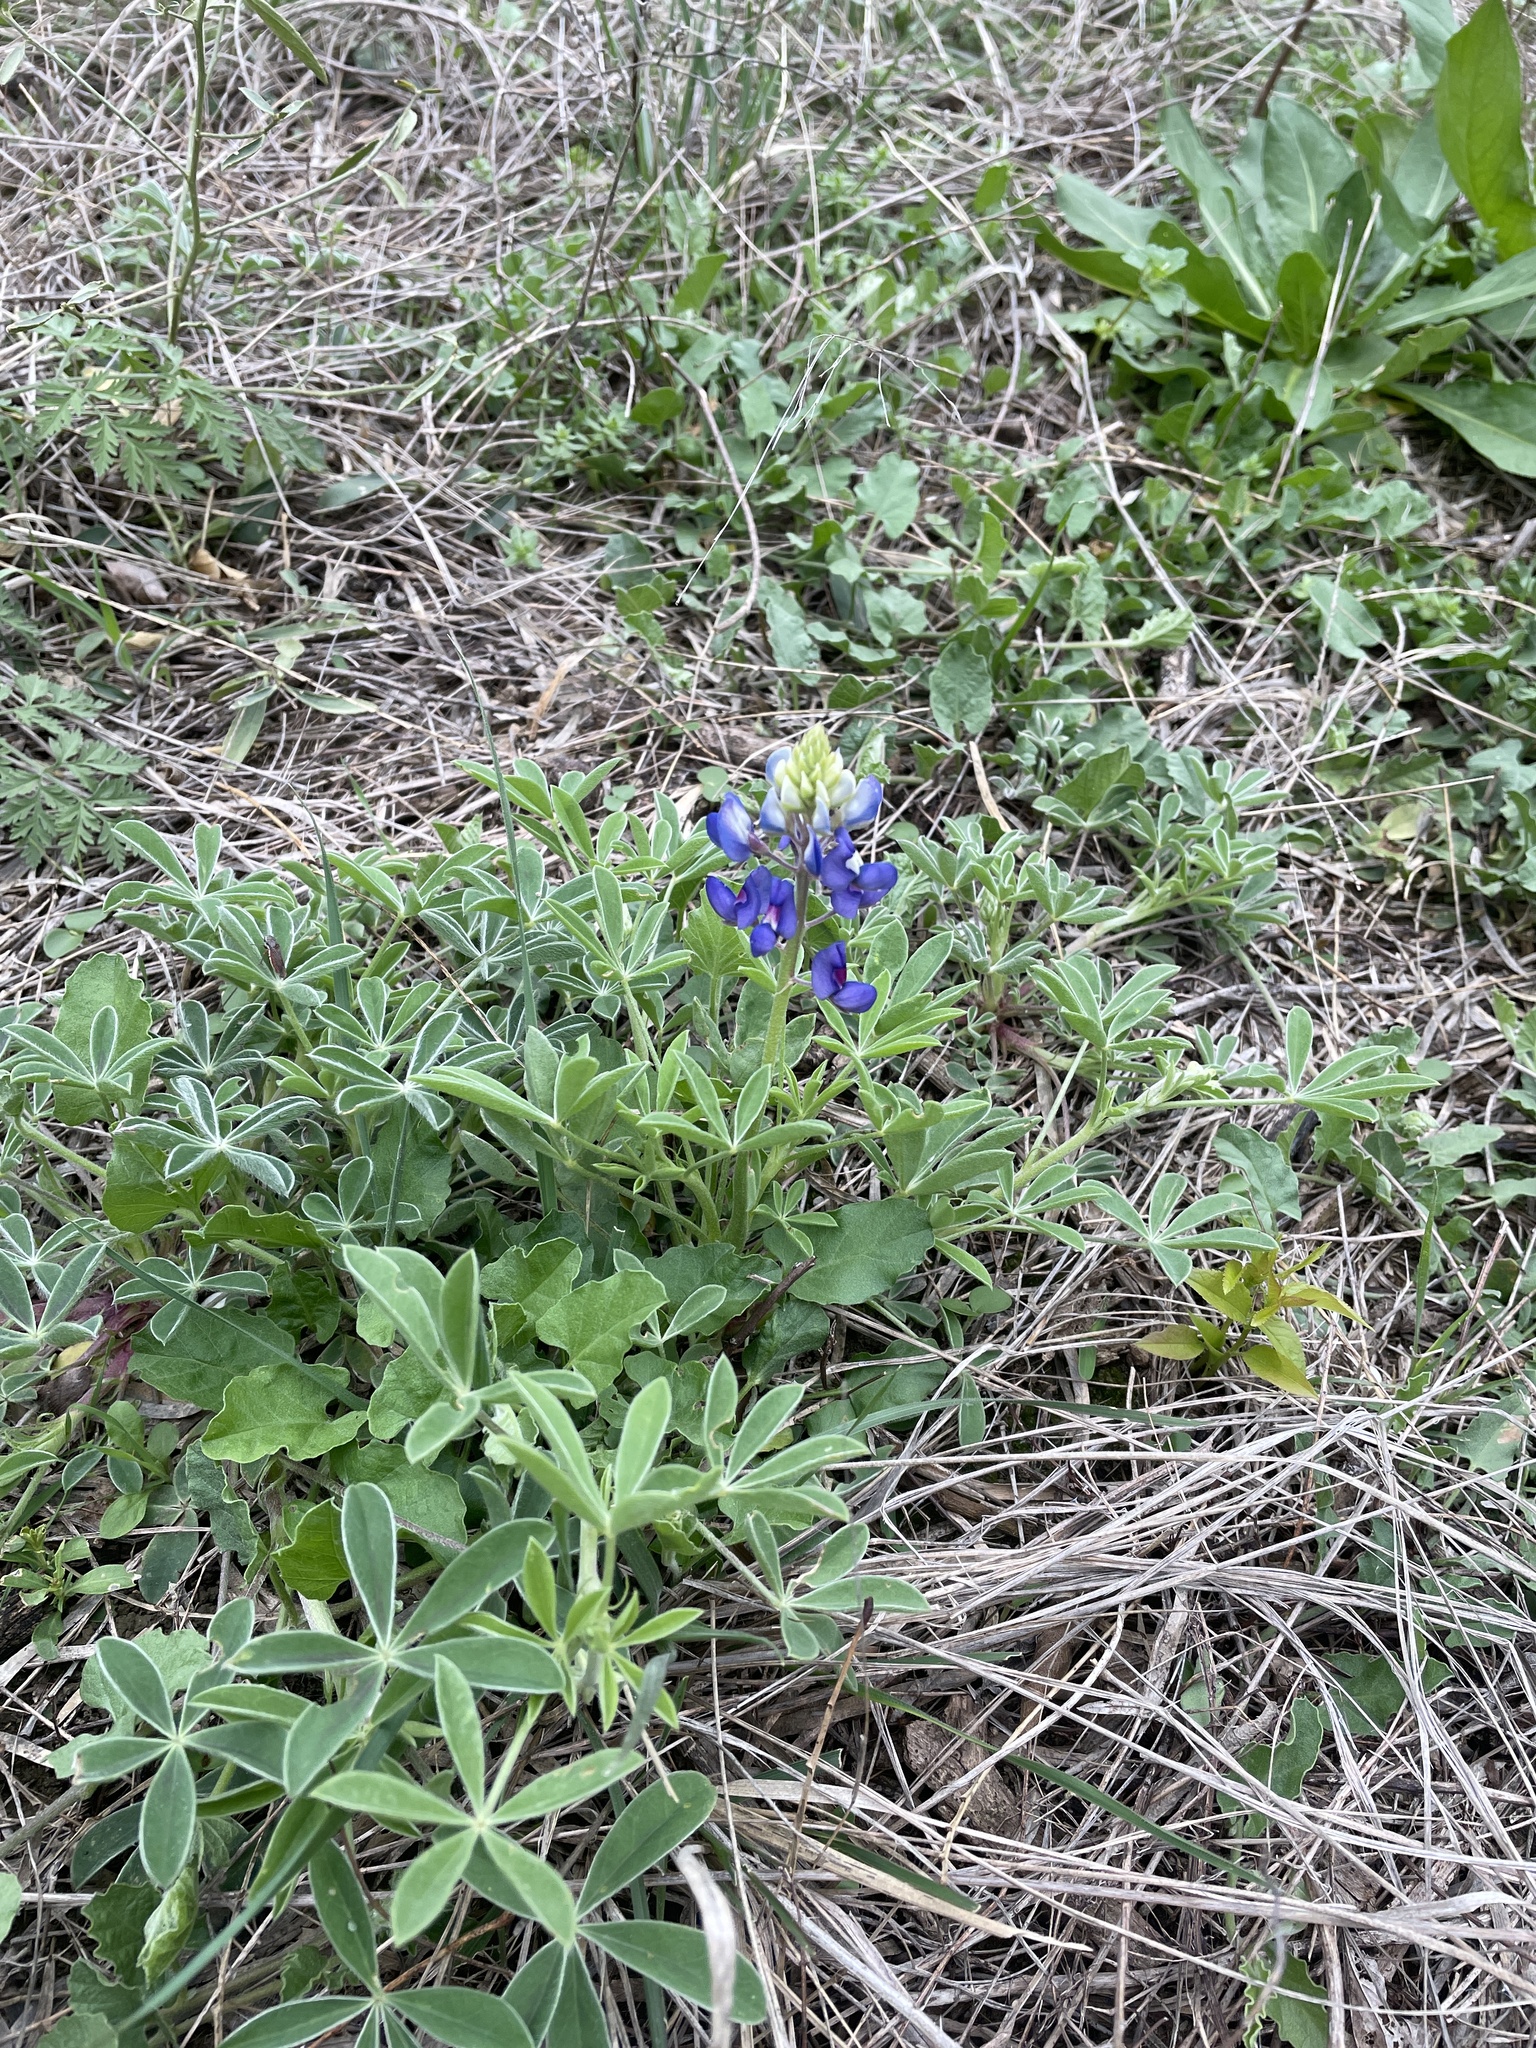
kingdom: Plantae
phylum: Tracheophyta
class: Magnoliopsida
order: Fabales
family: Fabaceae
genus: Lupinus
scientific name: Lupinus texensis
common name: Texas bluebonnet
